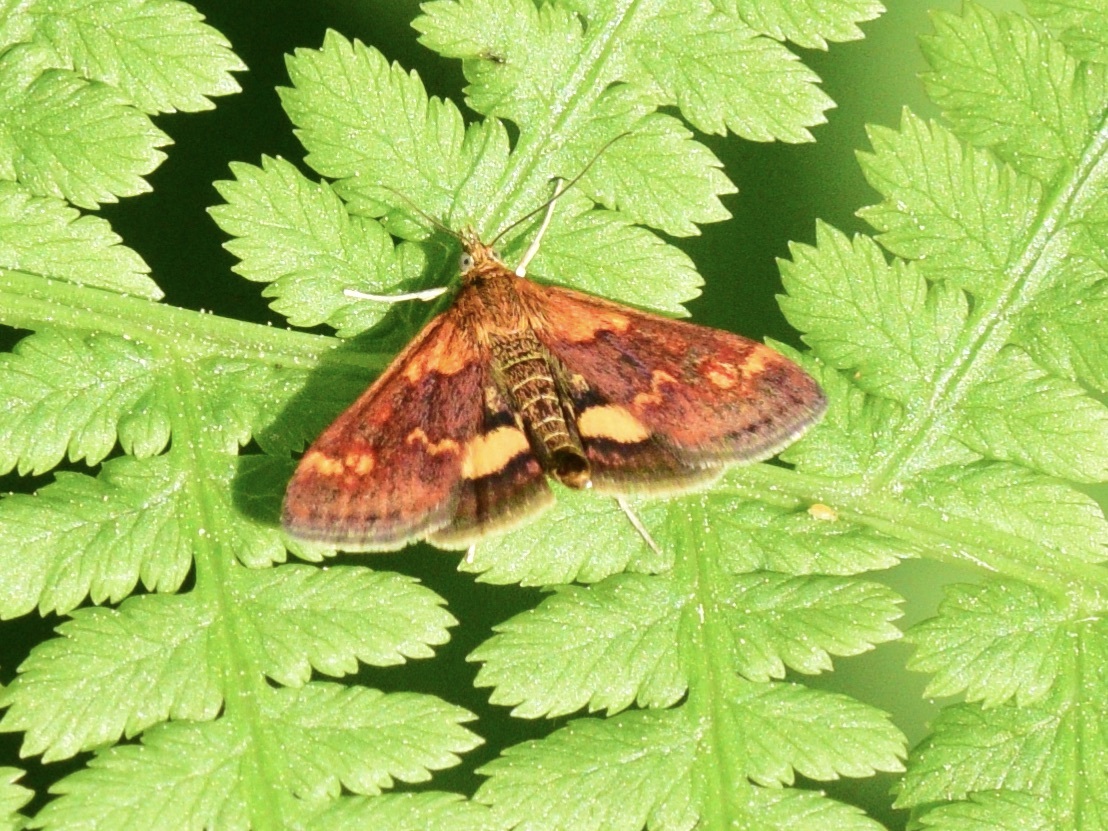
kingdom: Animalia
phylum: Arthropoda
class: Insecta
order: Lepidoptera
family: Crambidae
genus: Pyrausta
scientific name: Pyrausta orphisalis
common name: Orange mint moth
